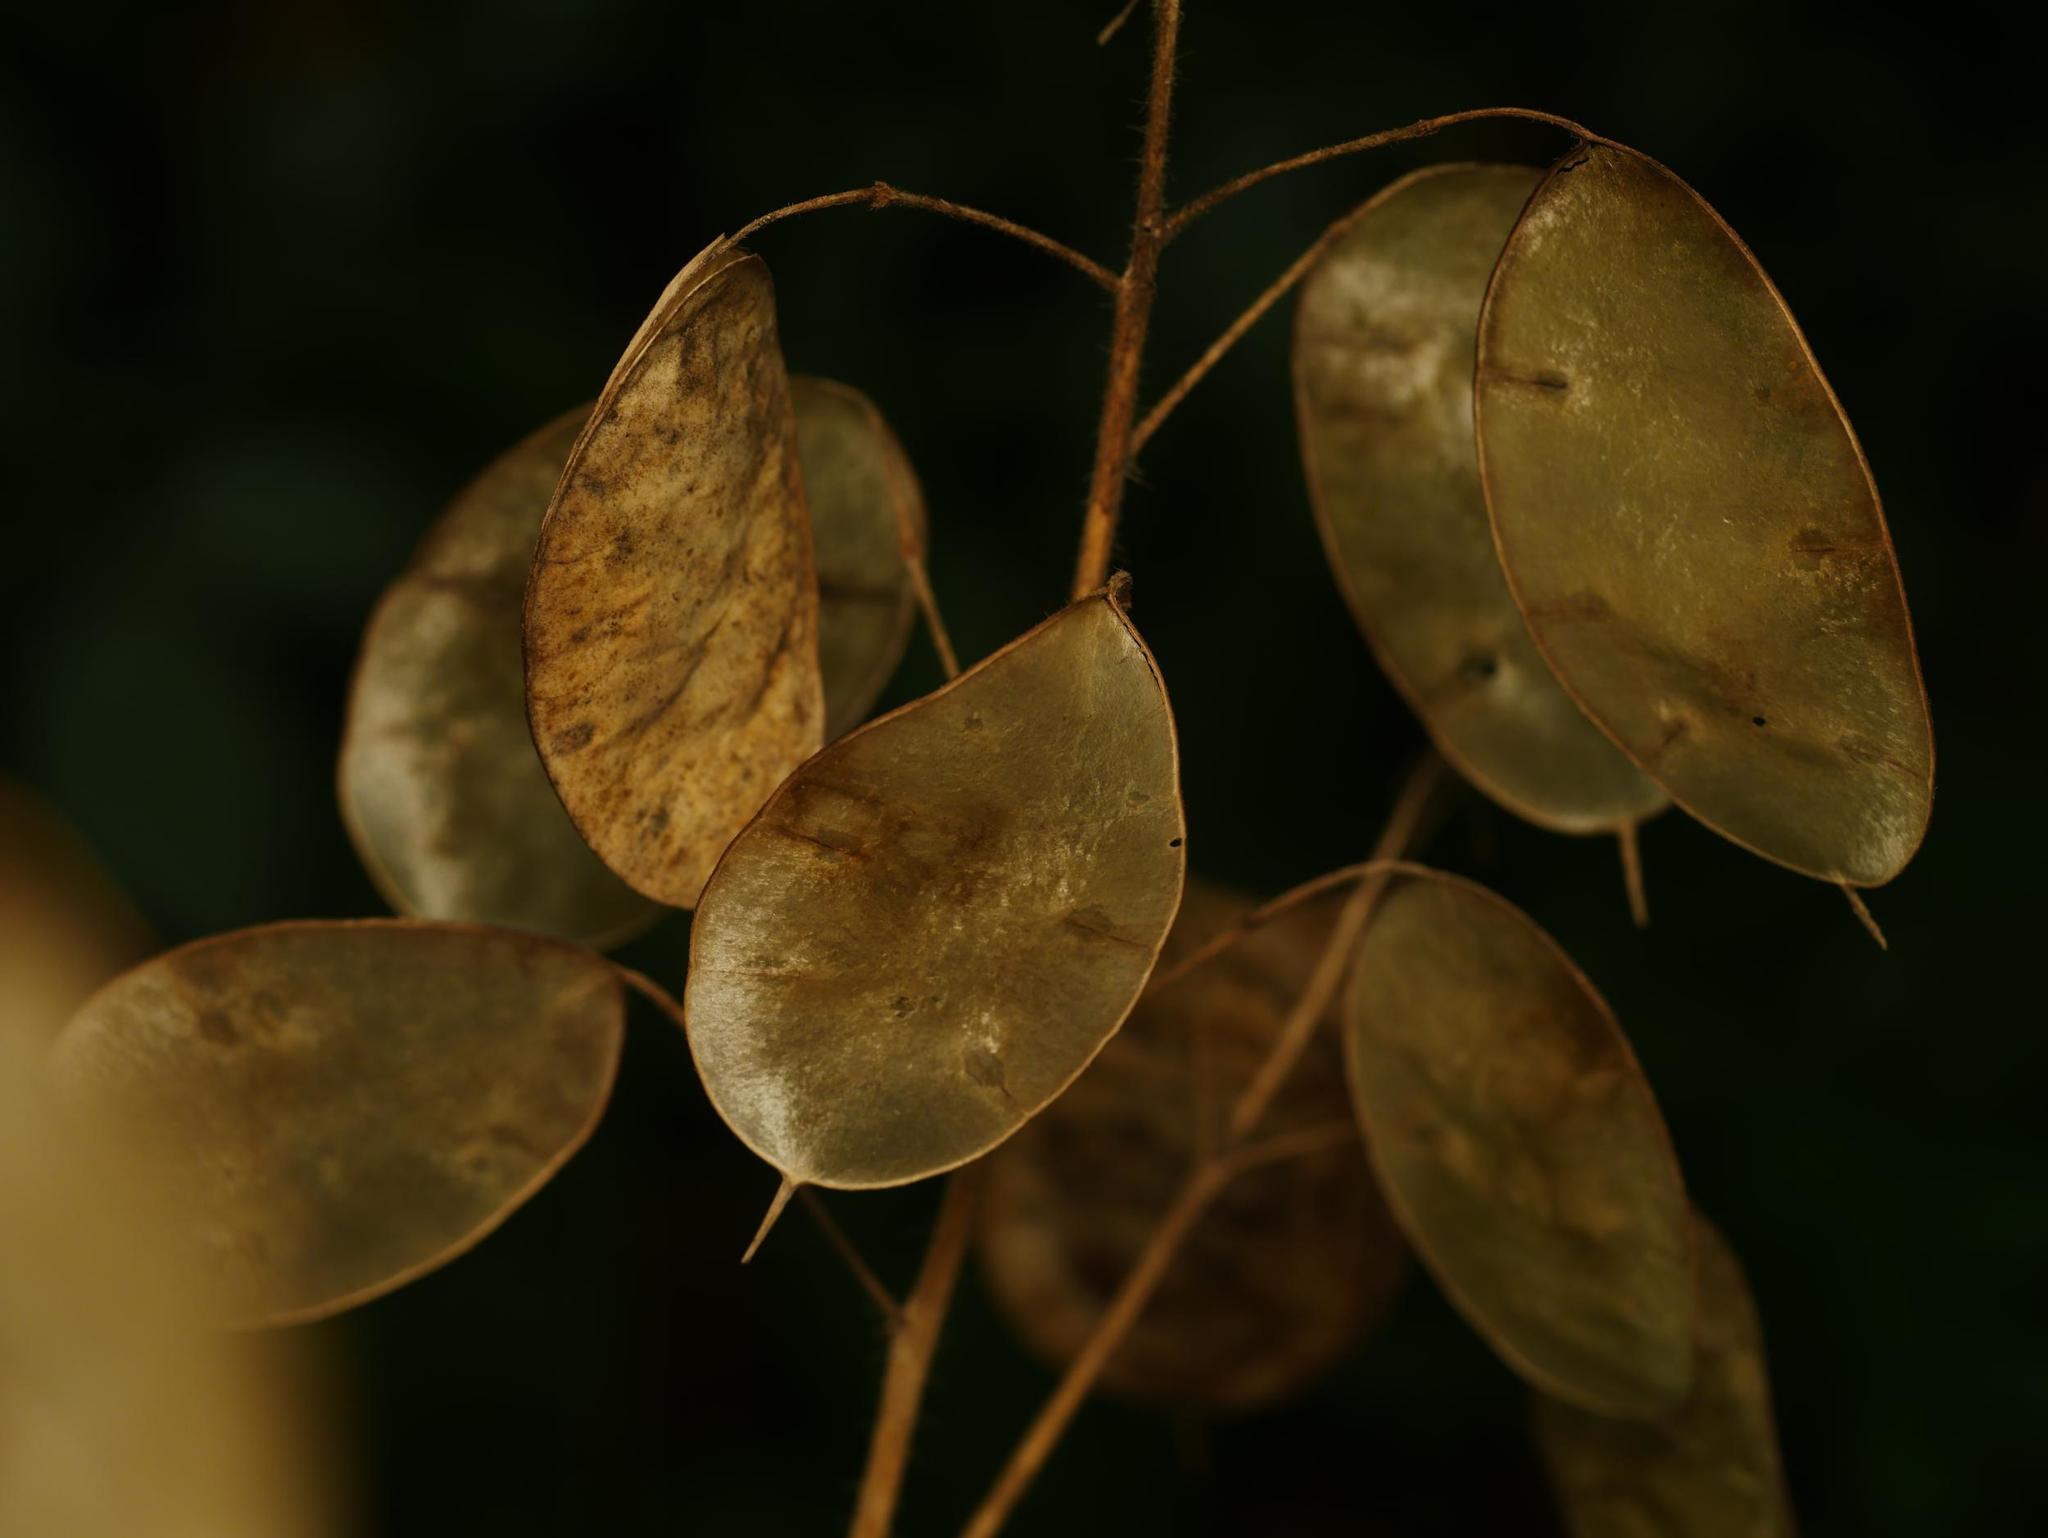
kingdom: Plantae
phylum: Tracheophyta
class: Magnoliopsida
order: Brassicales
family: Brassicaceae
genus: Lunaria
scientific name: Lunaria annua
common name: Honesty
